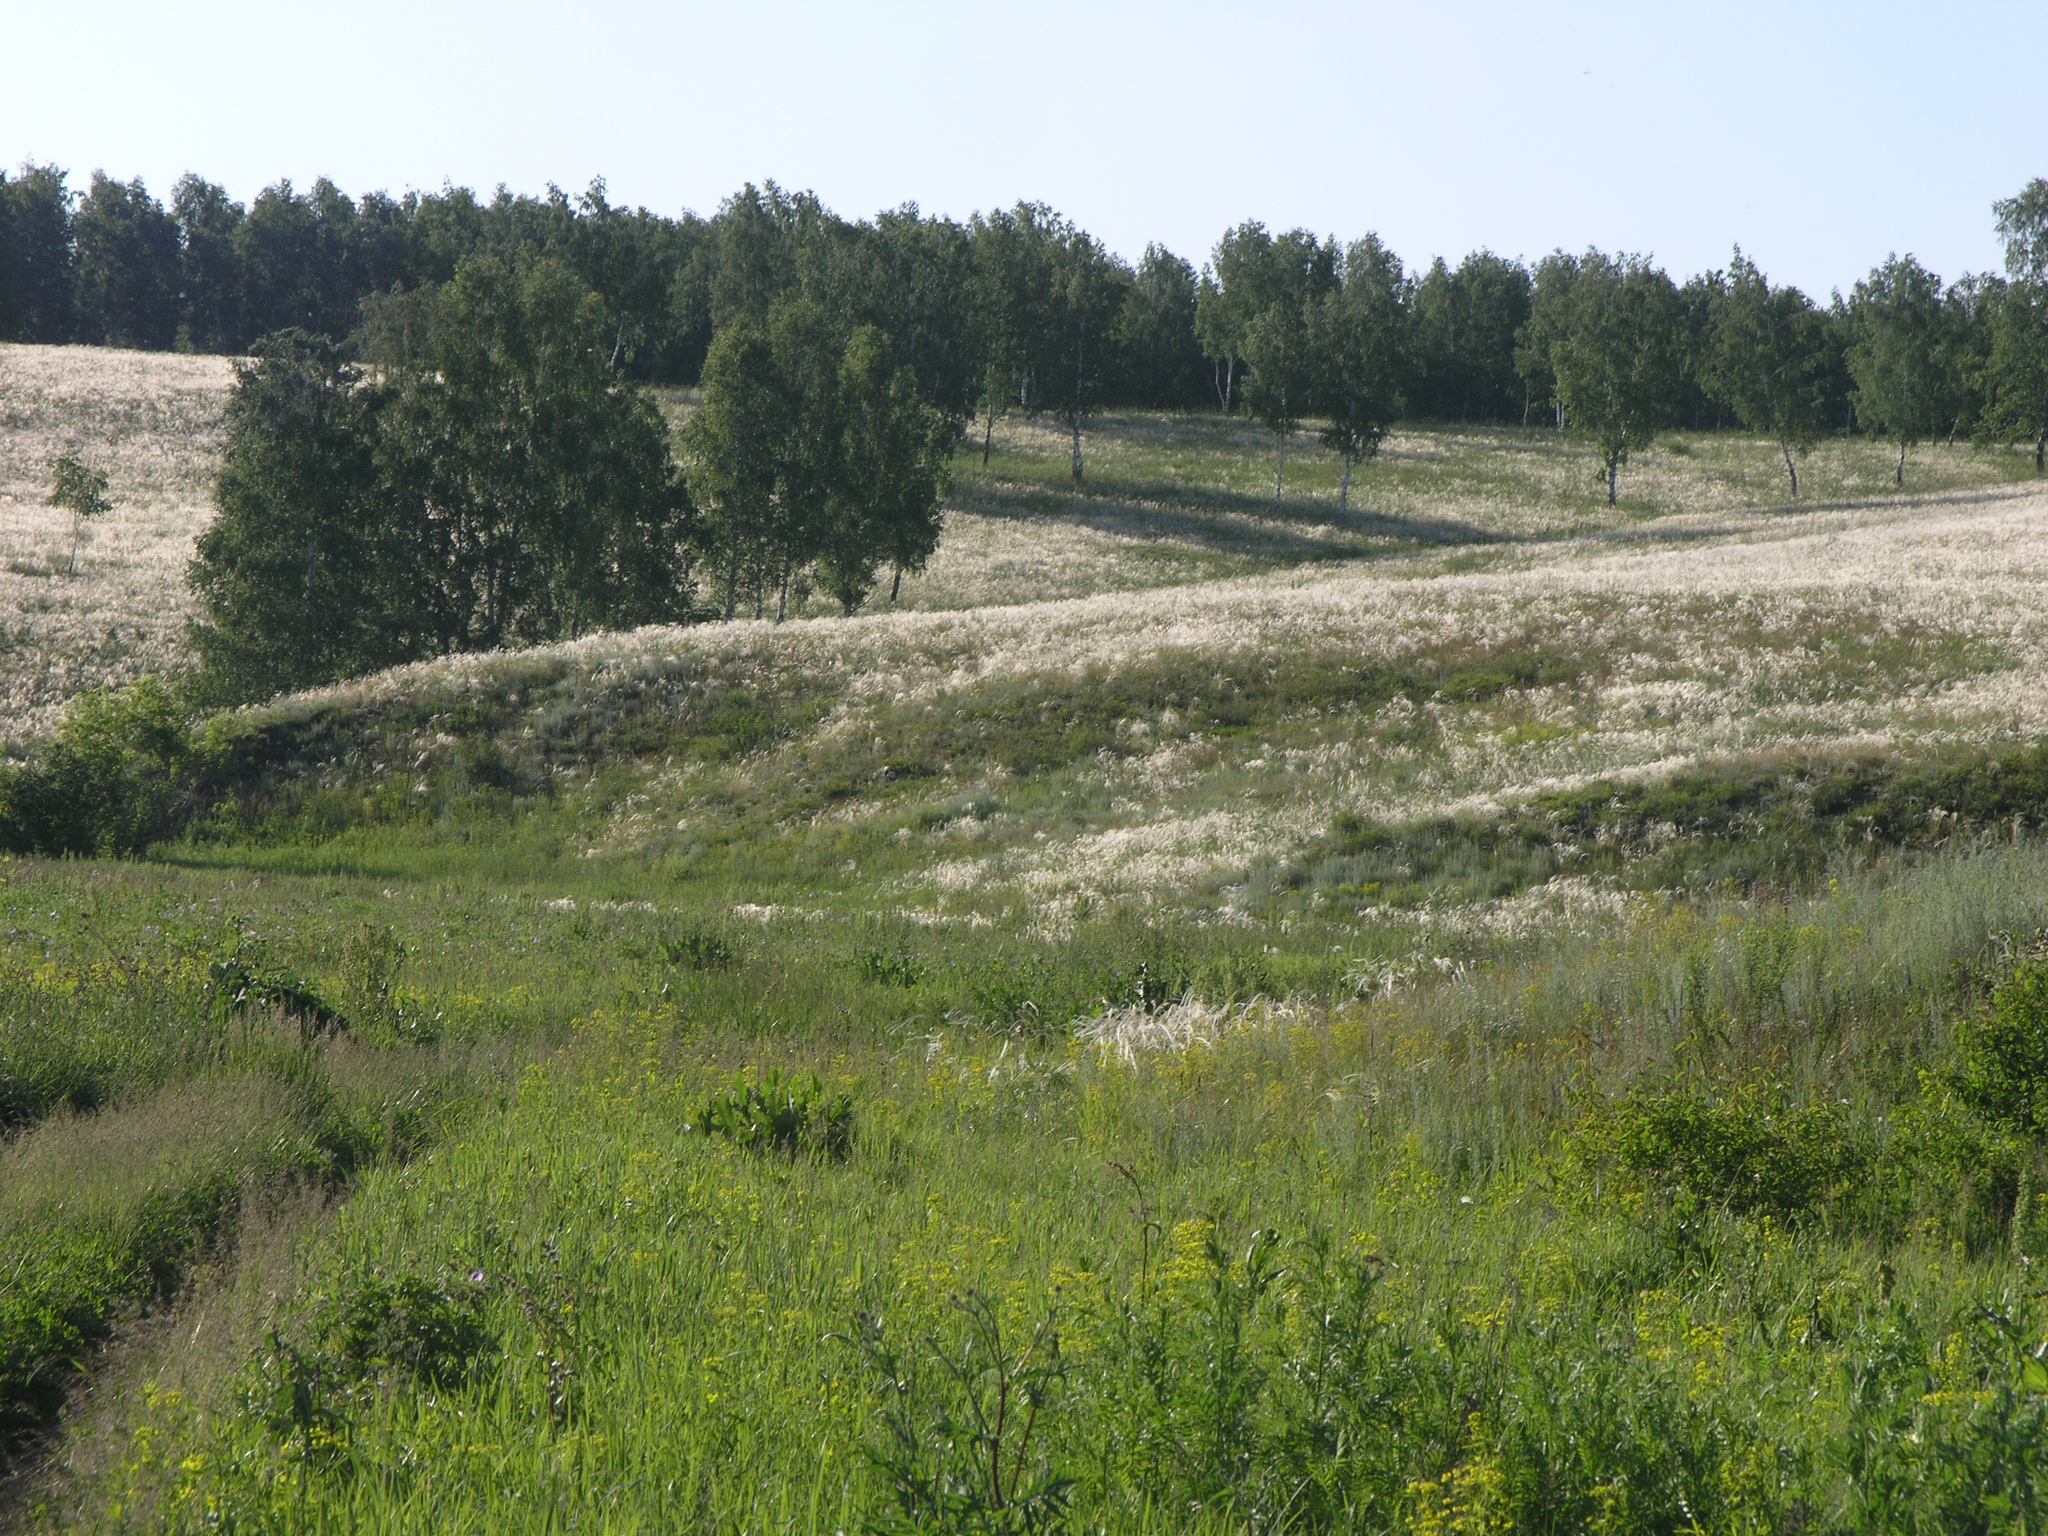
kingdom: Plantae
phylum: Tracheophyta
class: Liliopsida
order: Poales
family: Poaceae
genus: Stipa
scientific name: Stipa pennata
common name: European feather grass
